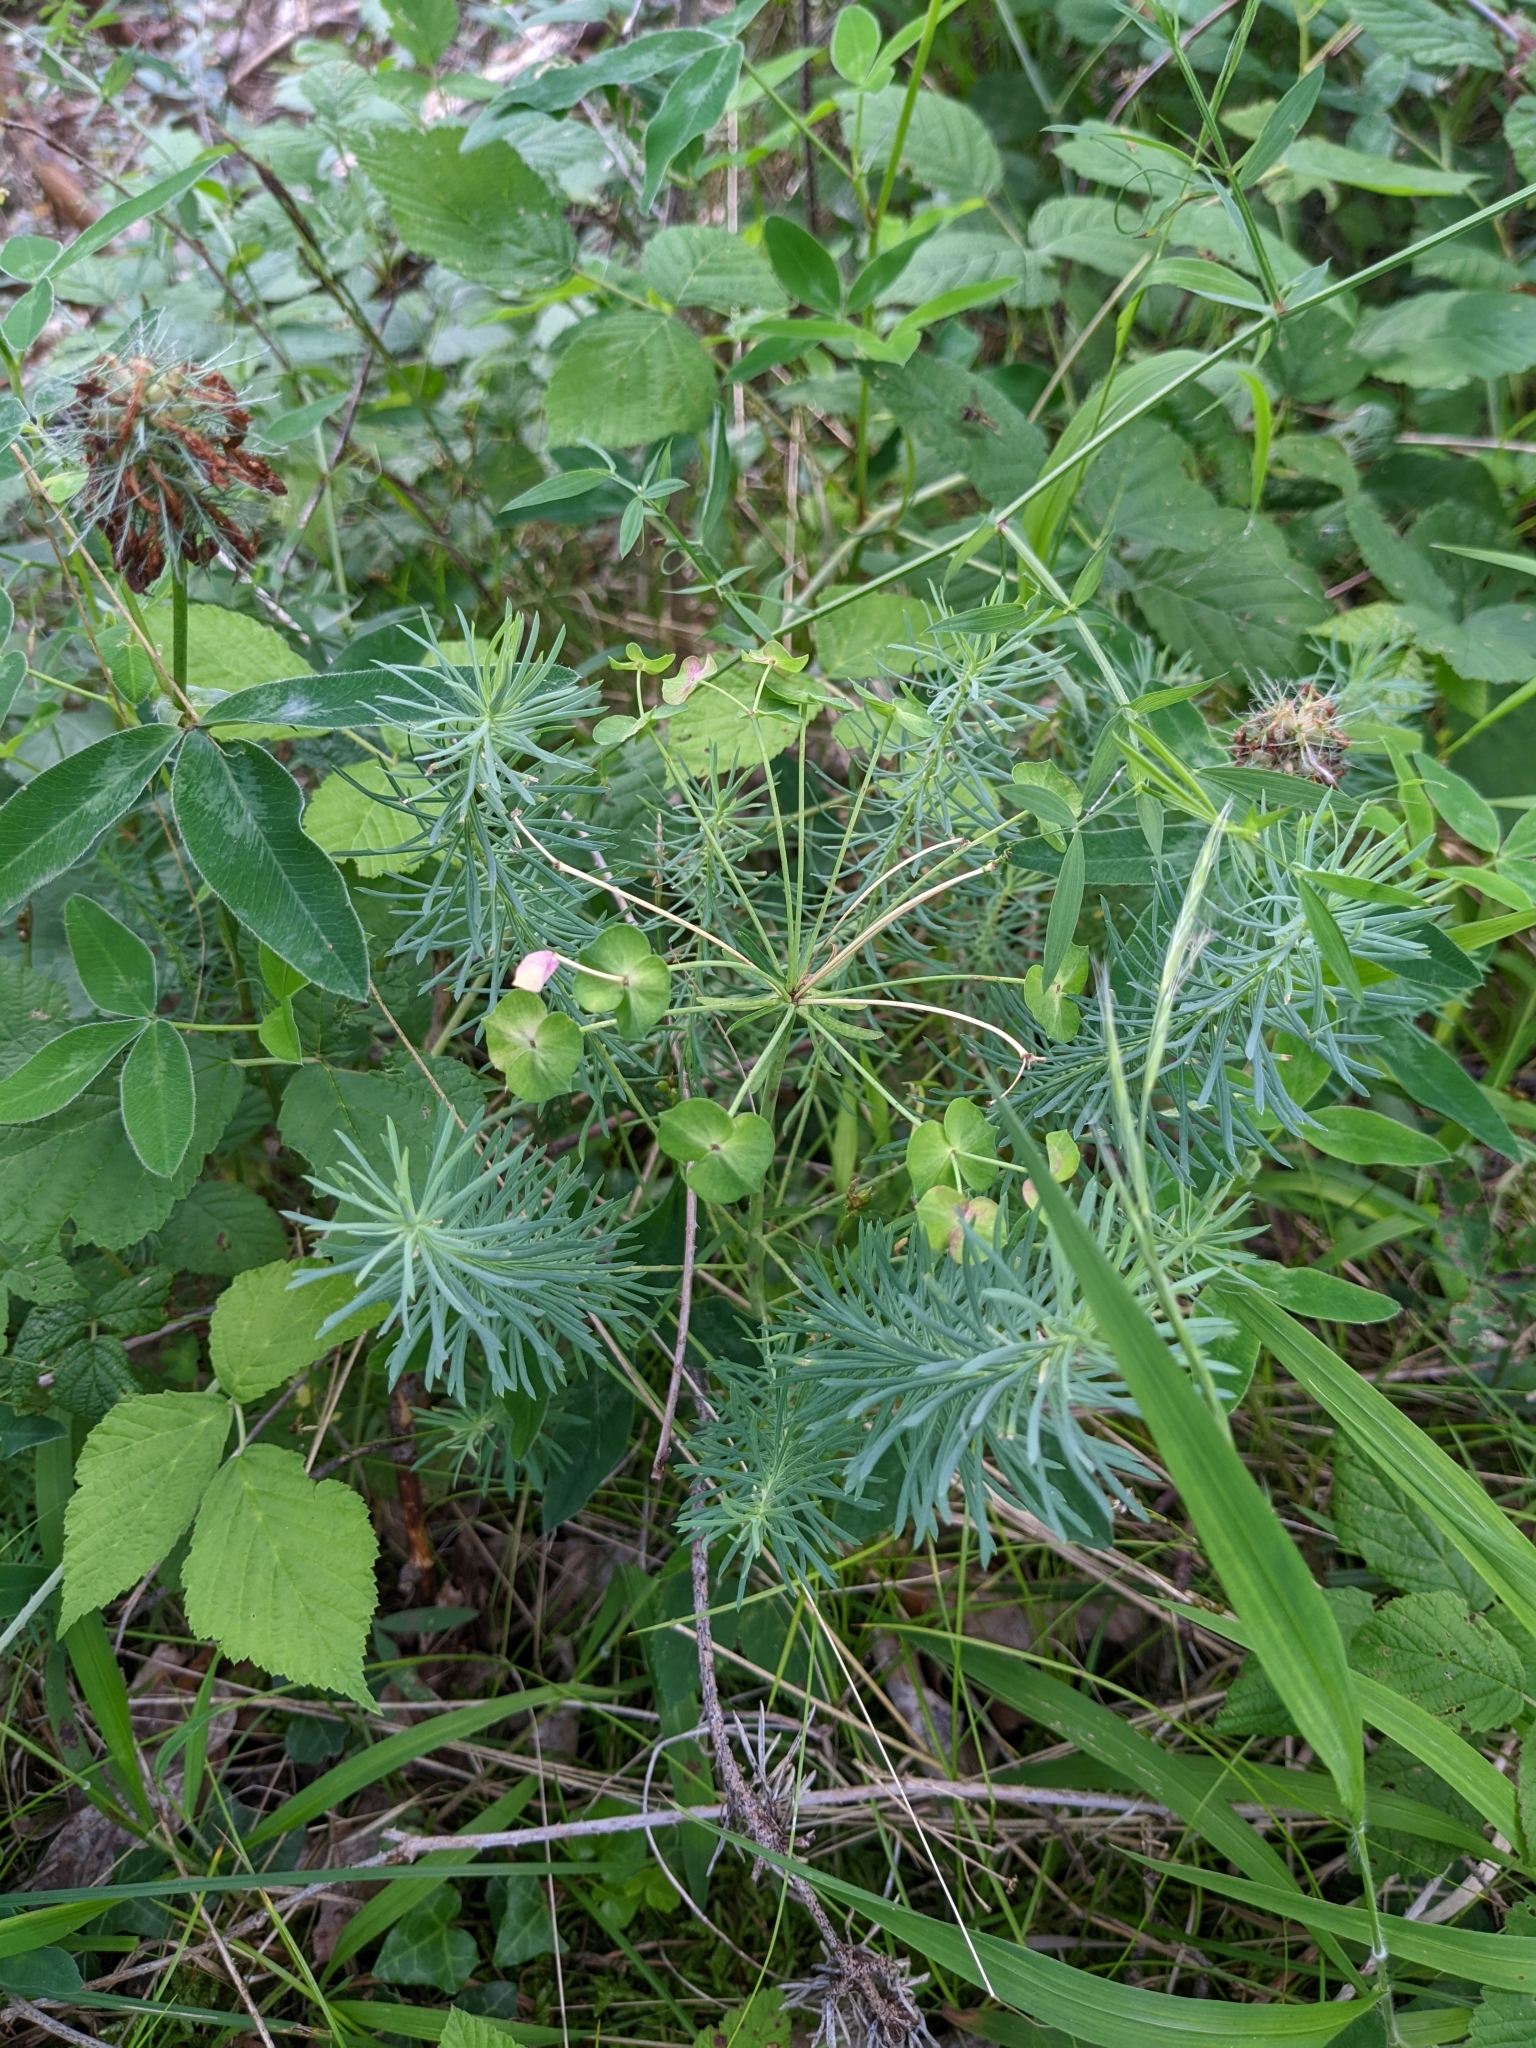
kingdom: Plantae
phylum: Tracheophyta
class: Magnoliopsida
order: Malpighiales
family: Euphorbiaceae
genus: Euphorbia
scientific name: Euphorbia cyparissias
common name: Cypress spurge
